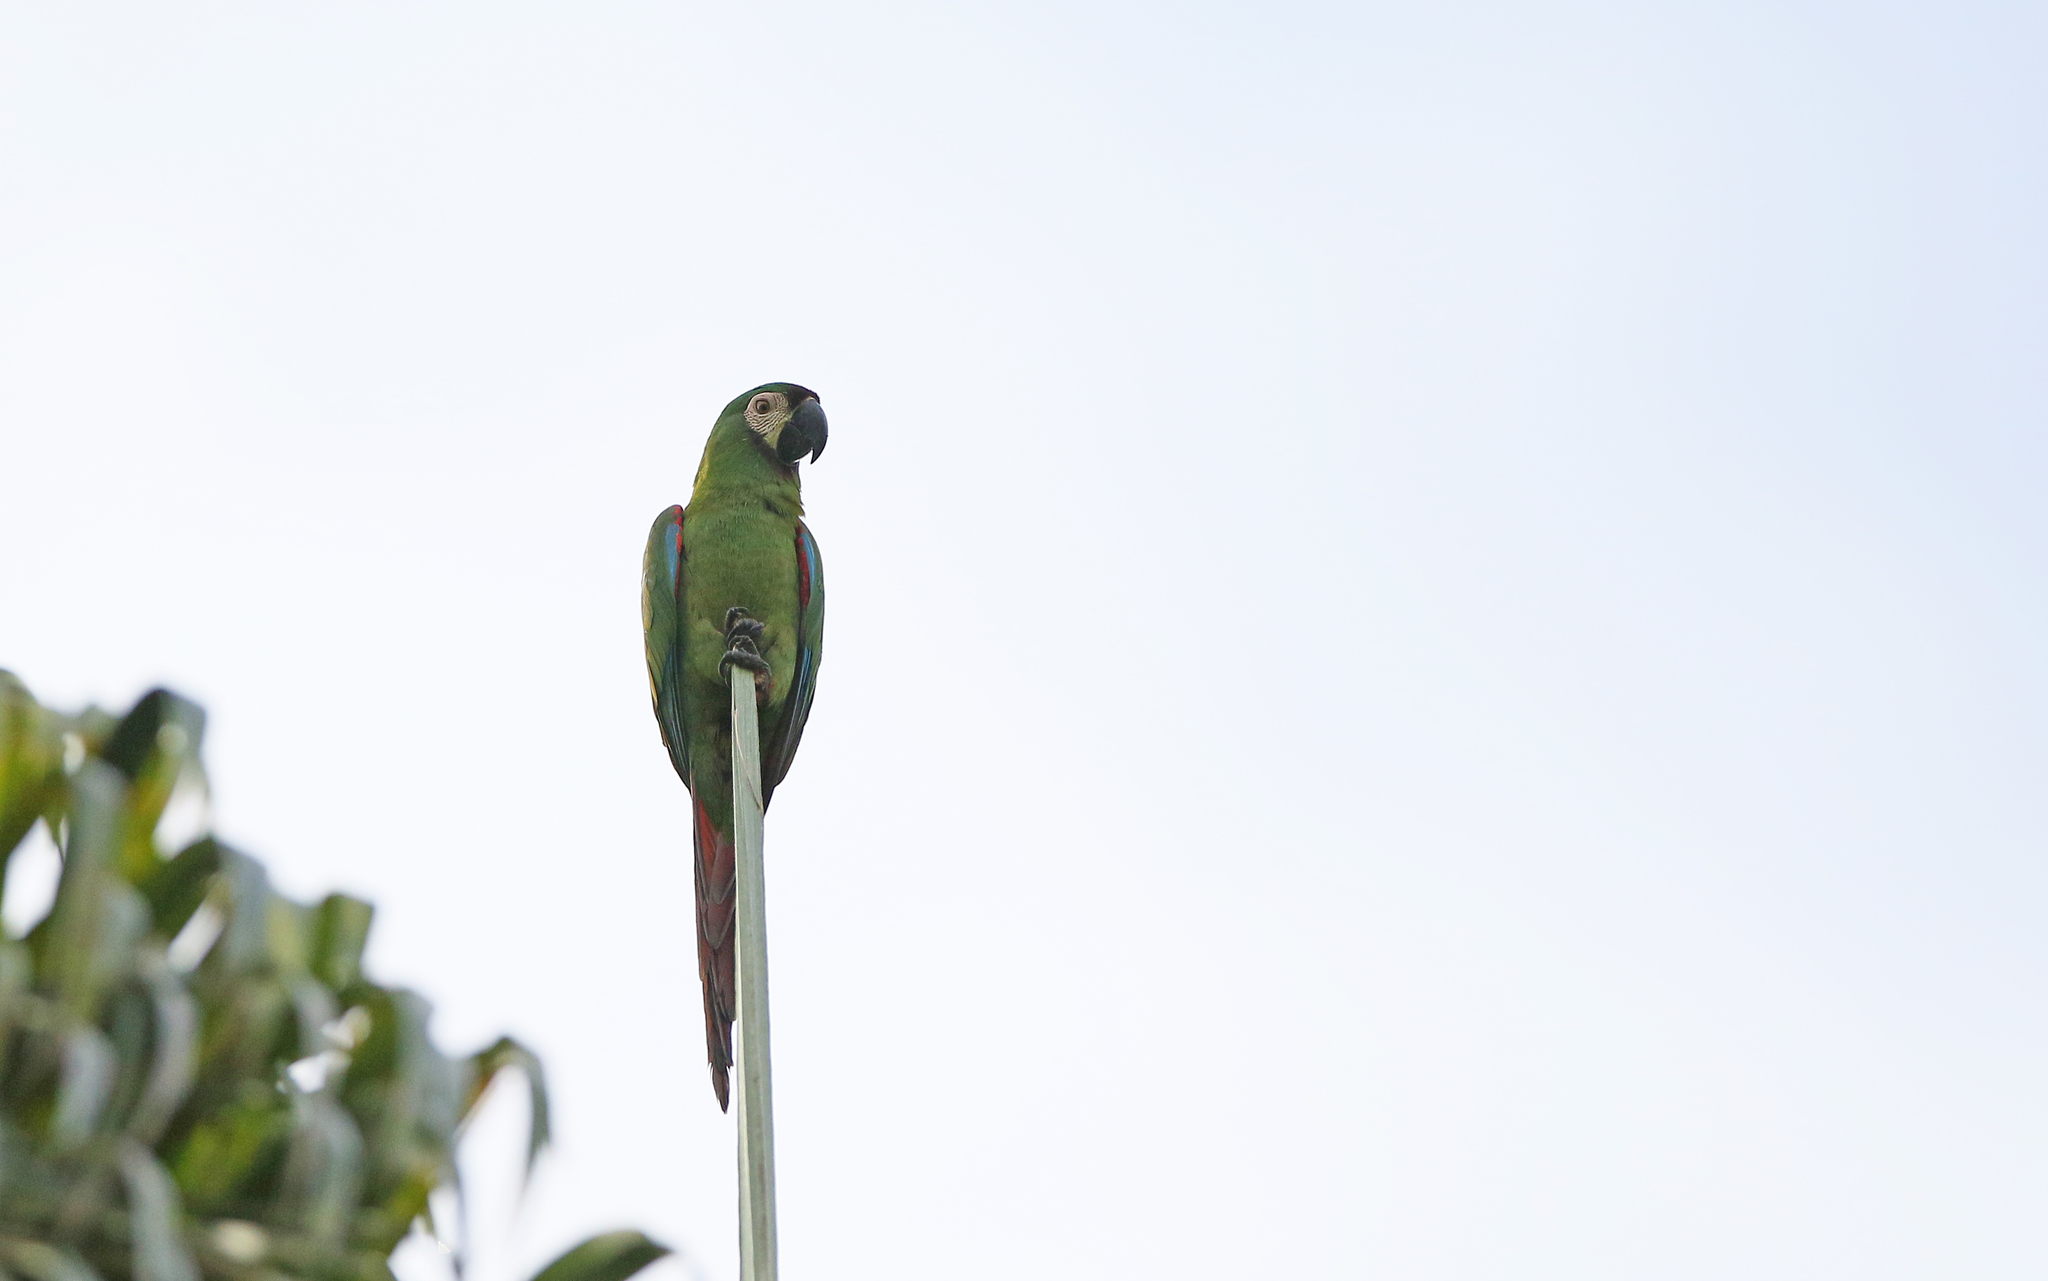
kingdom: Animalia
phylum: Chordata
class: Aves
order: Psittaciformes
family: Psittacidae
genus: Ara
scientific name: Ara severus
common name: Chestnut-fronted macaw
